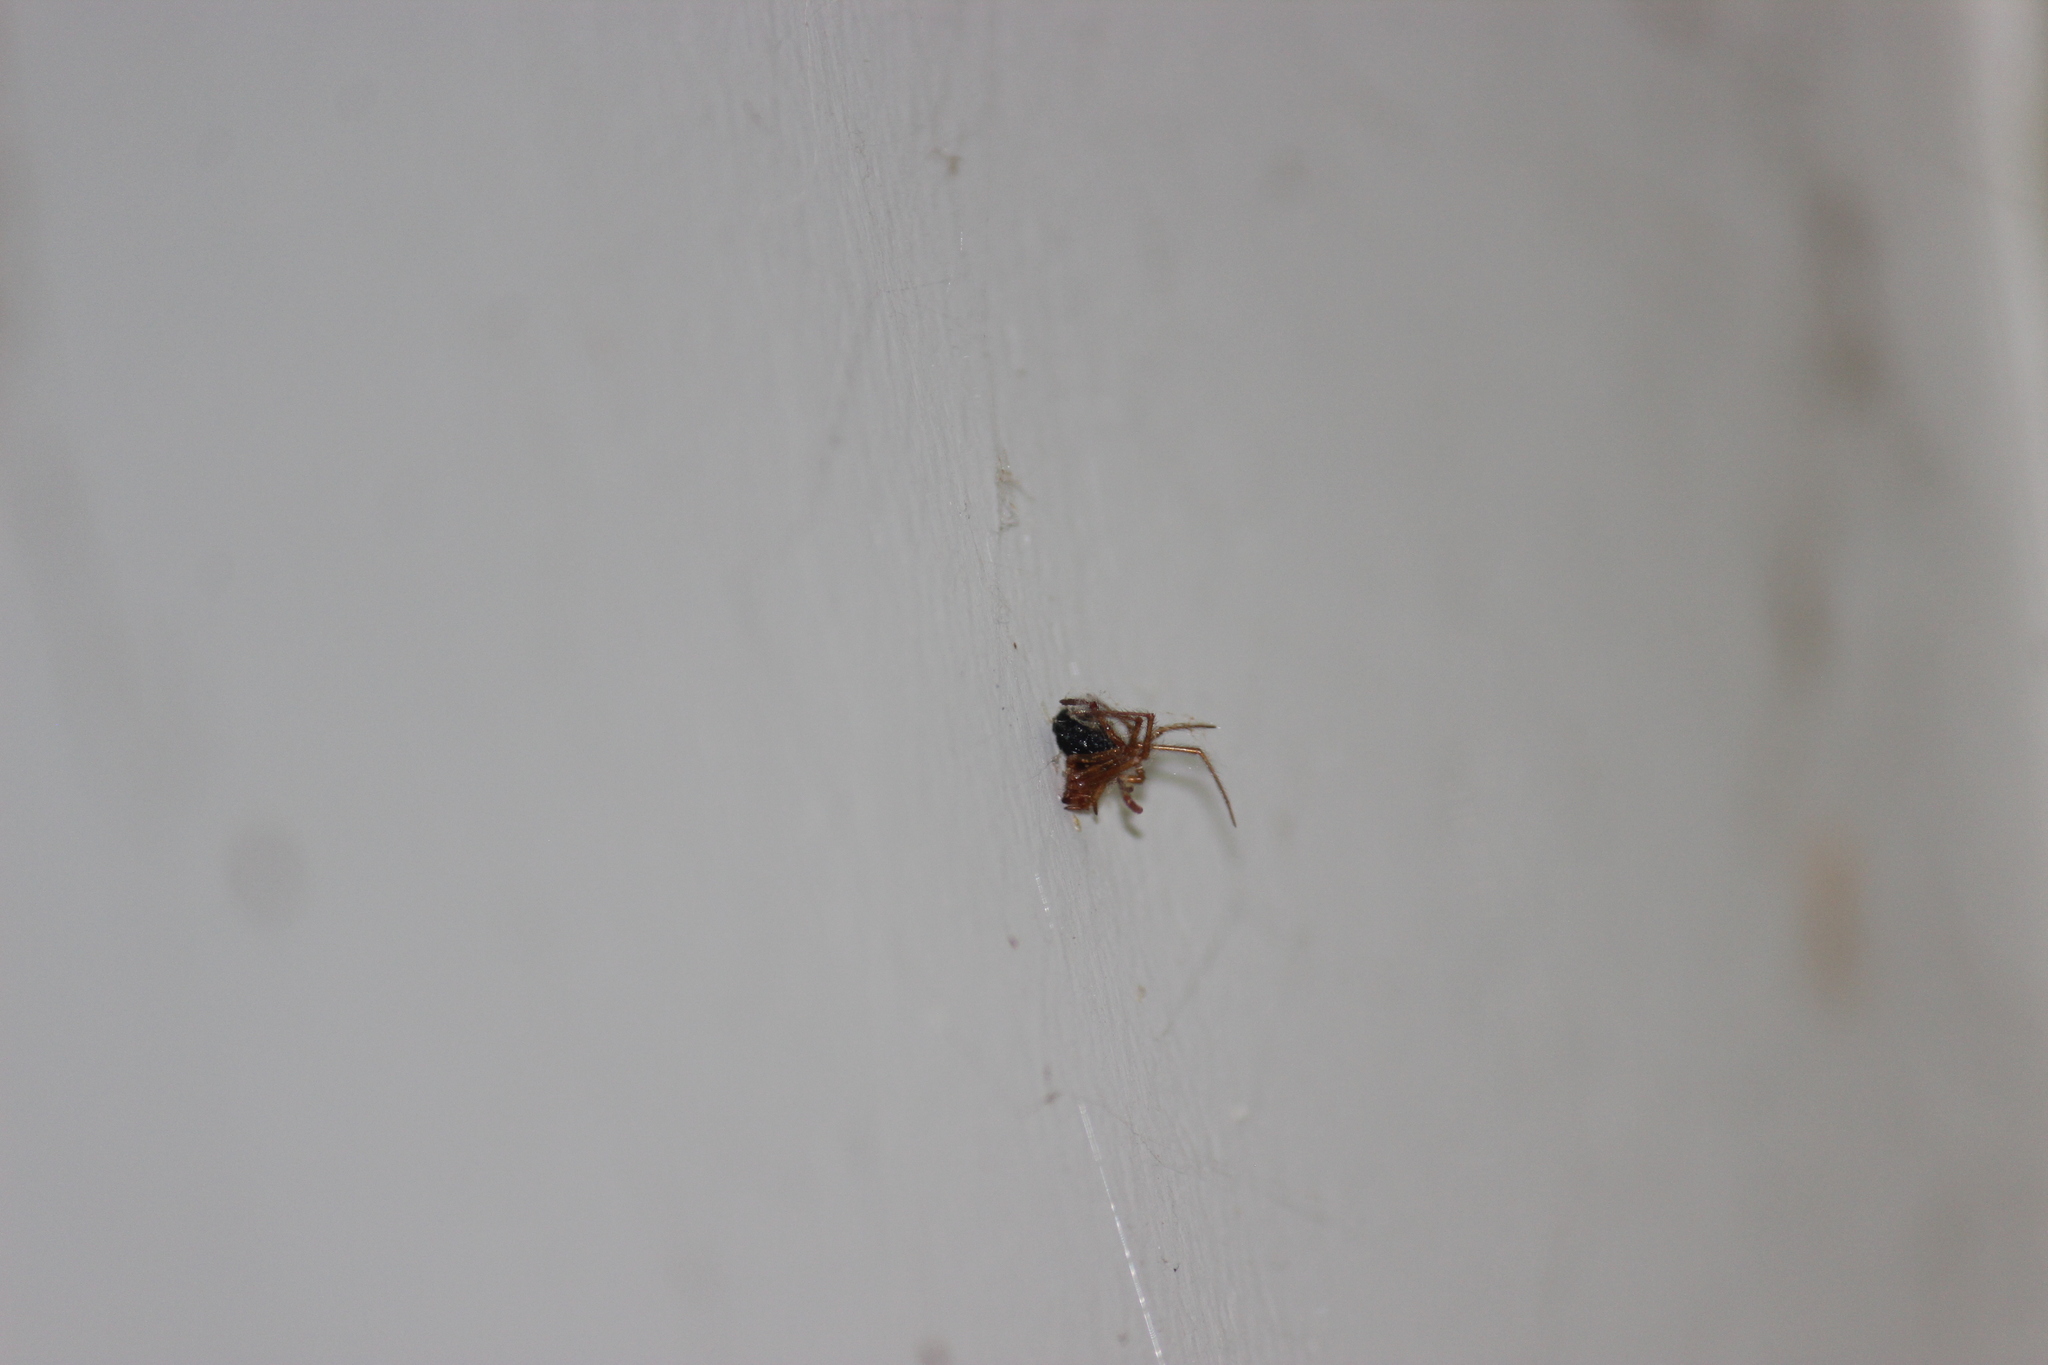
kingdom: Animalia
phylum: Arthropoda
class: Arachnida
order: Araneae
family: Theridiidae
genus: Nesticodes
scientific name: Nesticodes rufipes
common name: Cobweb spiders
